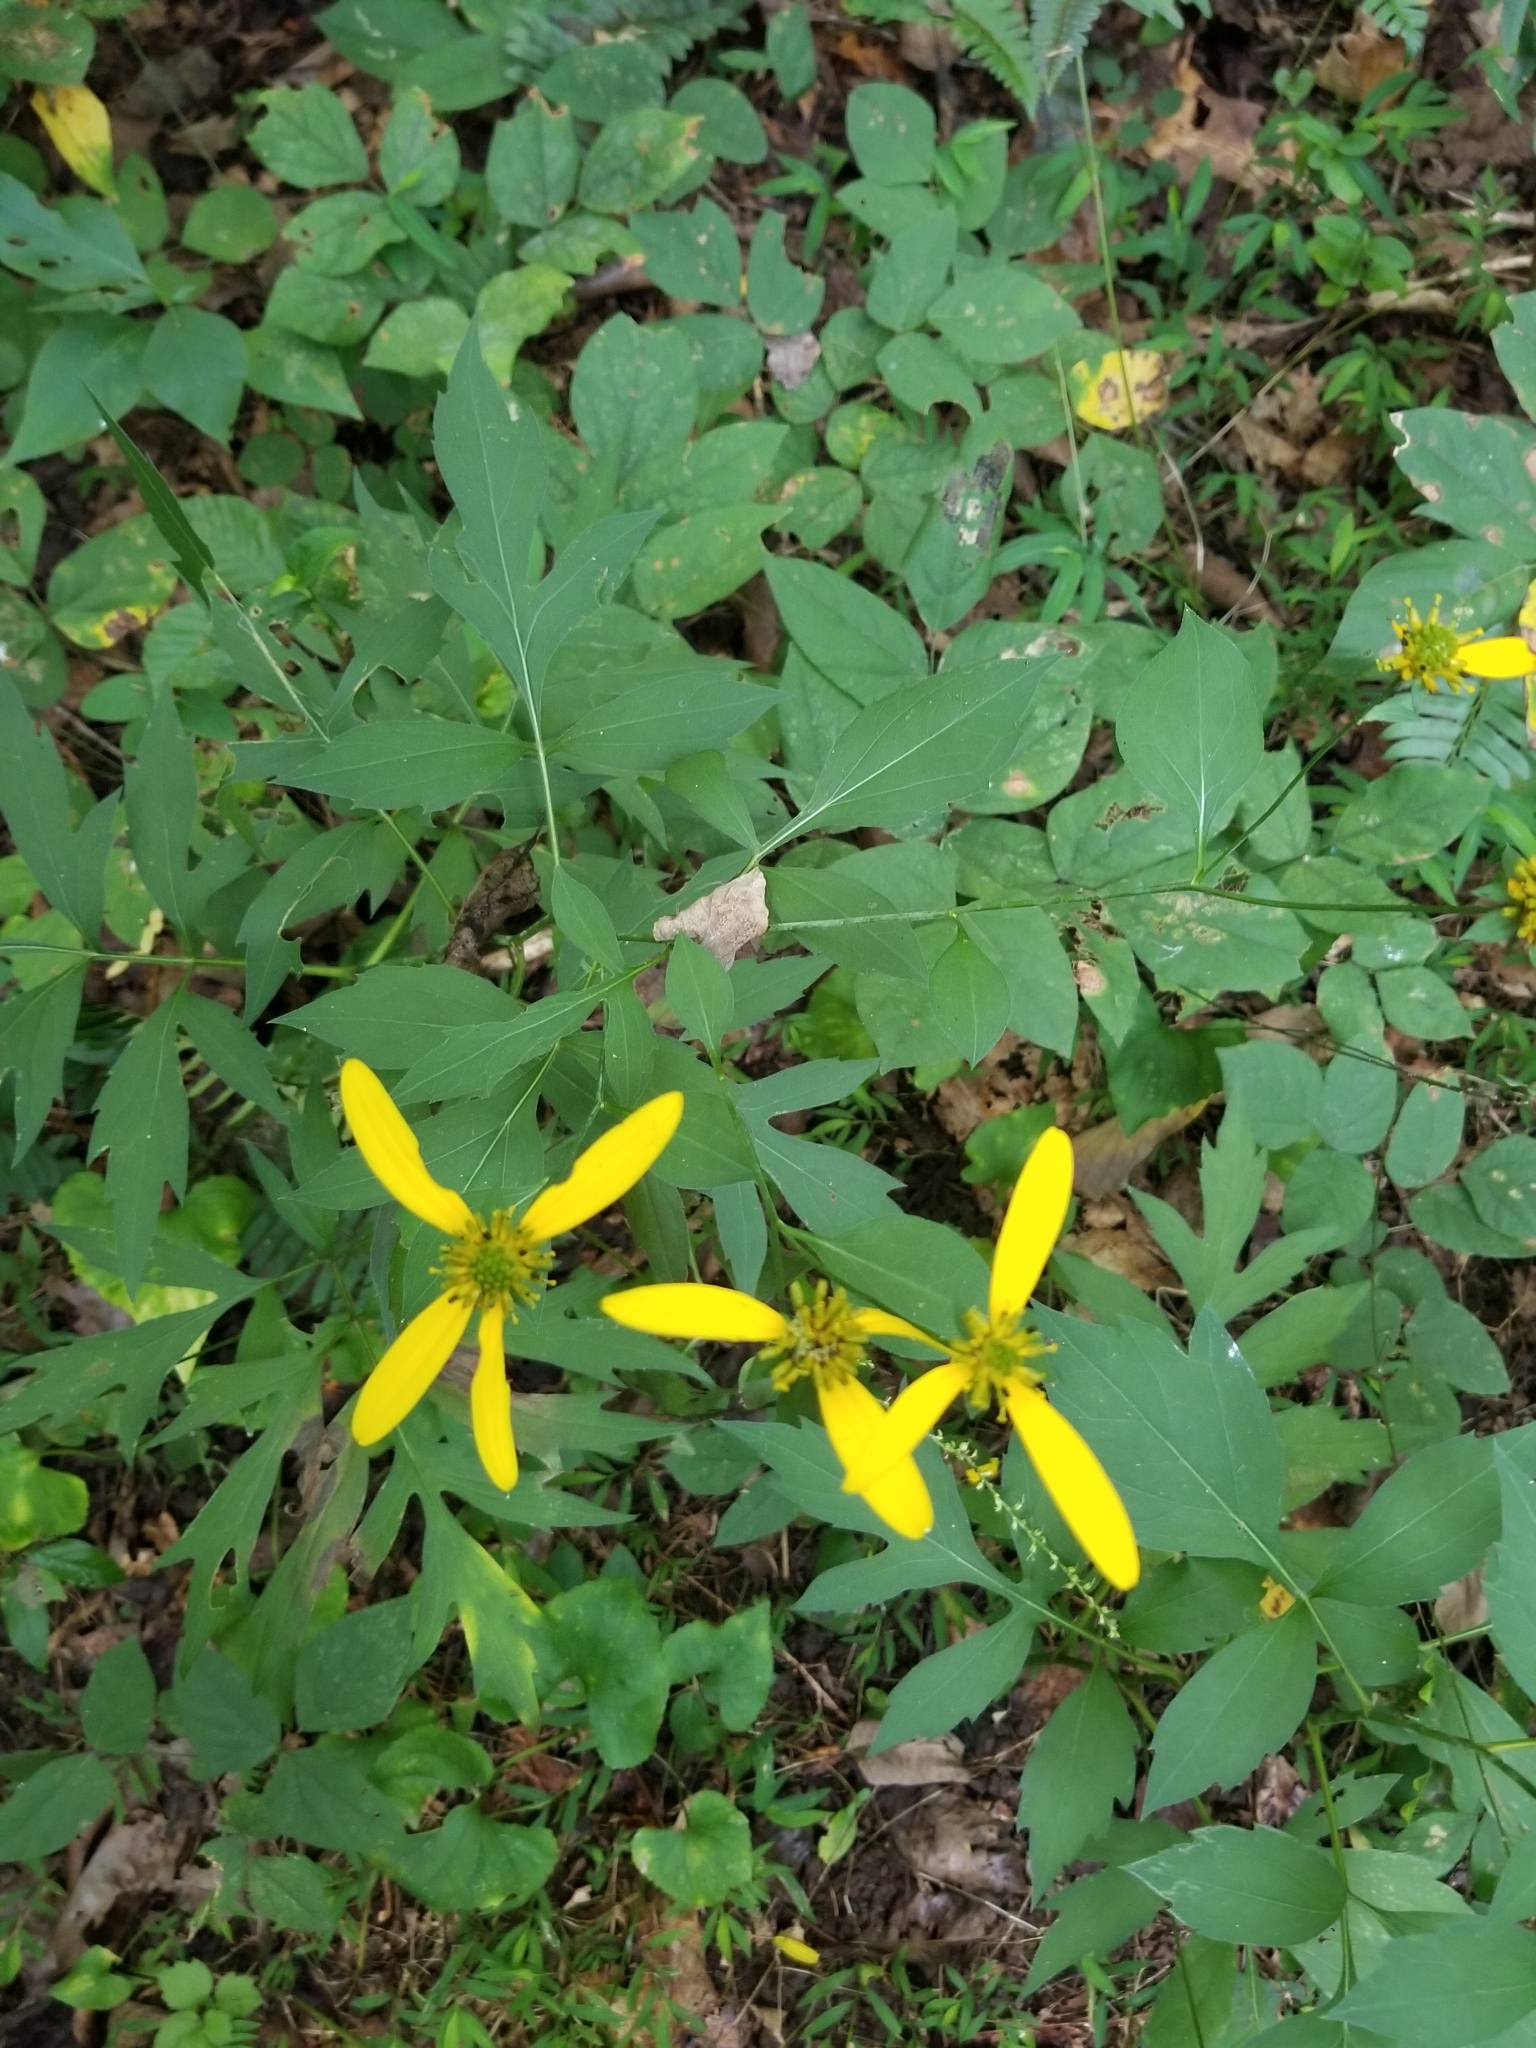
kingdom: Plantae
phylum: Tracheophyta
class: Magnoliopsida
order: Asterales
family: Asteraceae
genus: Rudbeckia
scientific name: Rudbeckia laciniata
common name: Coneflower
